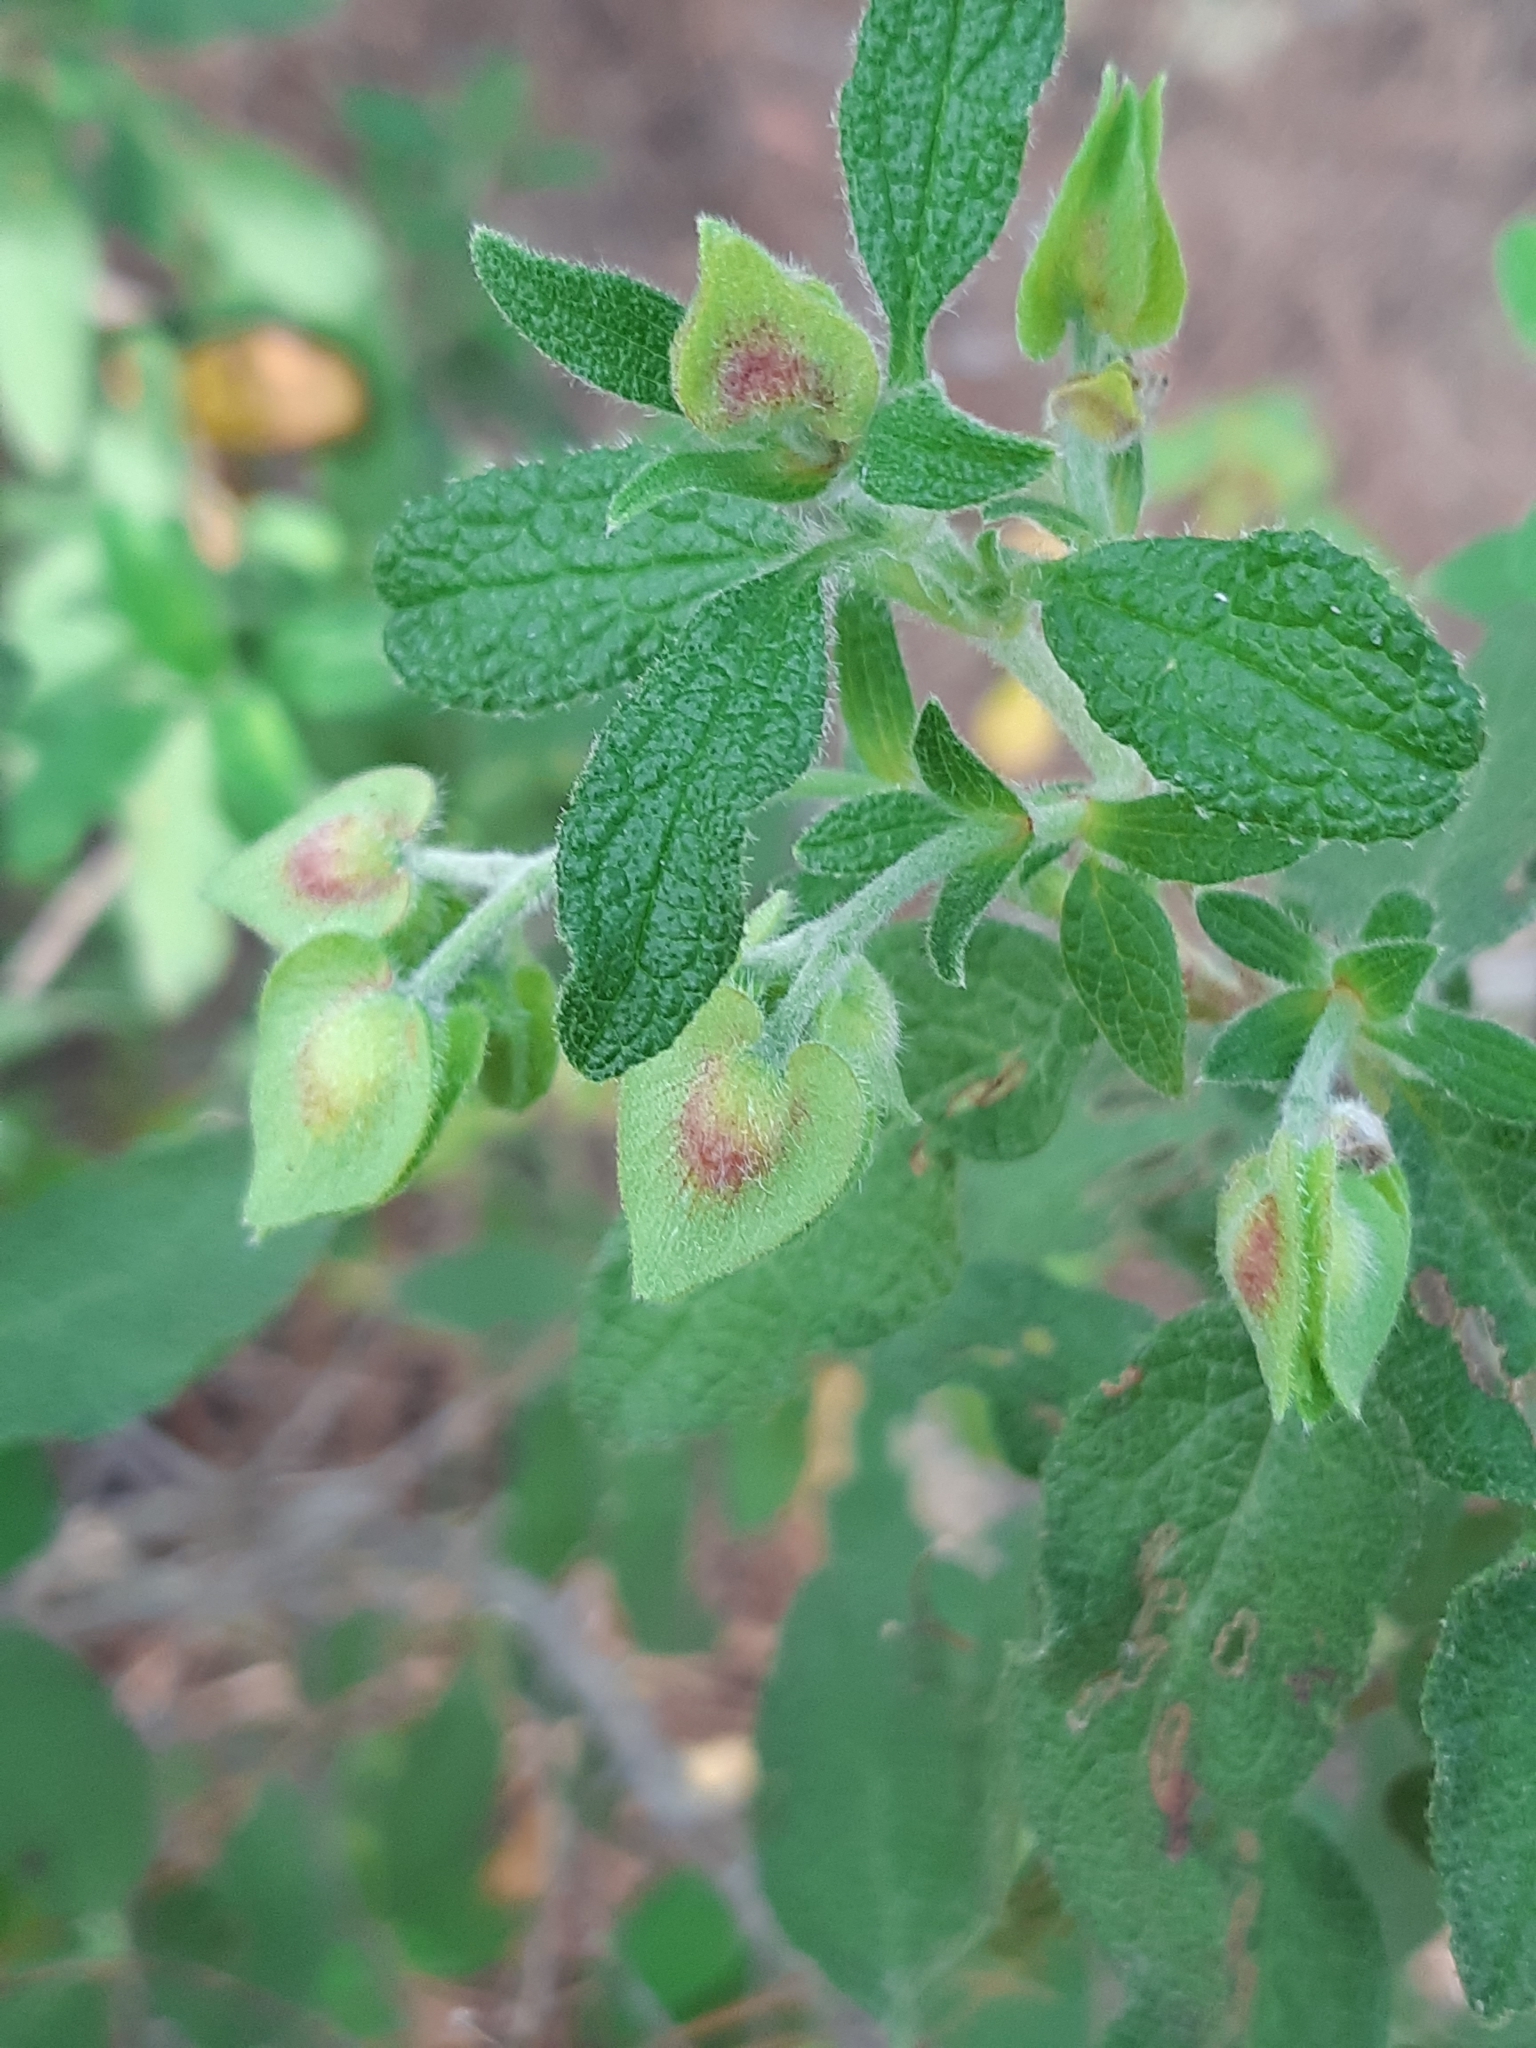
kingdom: Plantae
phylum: Tracheophyta
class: Magnoliopsida
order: Malvales
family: Cistaceae
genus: Cistus
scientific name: Cistus salviifolius
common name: Salvia cistus
